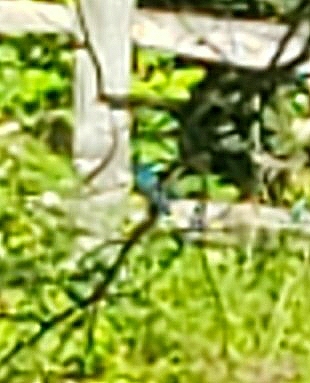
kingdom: Animalia
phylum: Chordata
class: Aves
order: Passeriformes
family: Cardinalidae
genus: Passerina
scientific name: Passerina cyanea
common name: Indigo bunting
